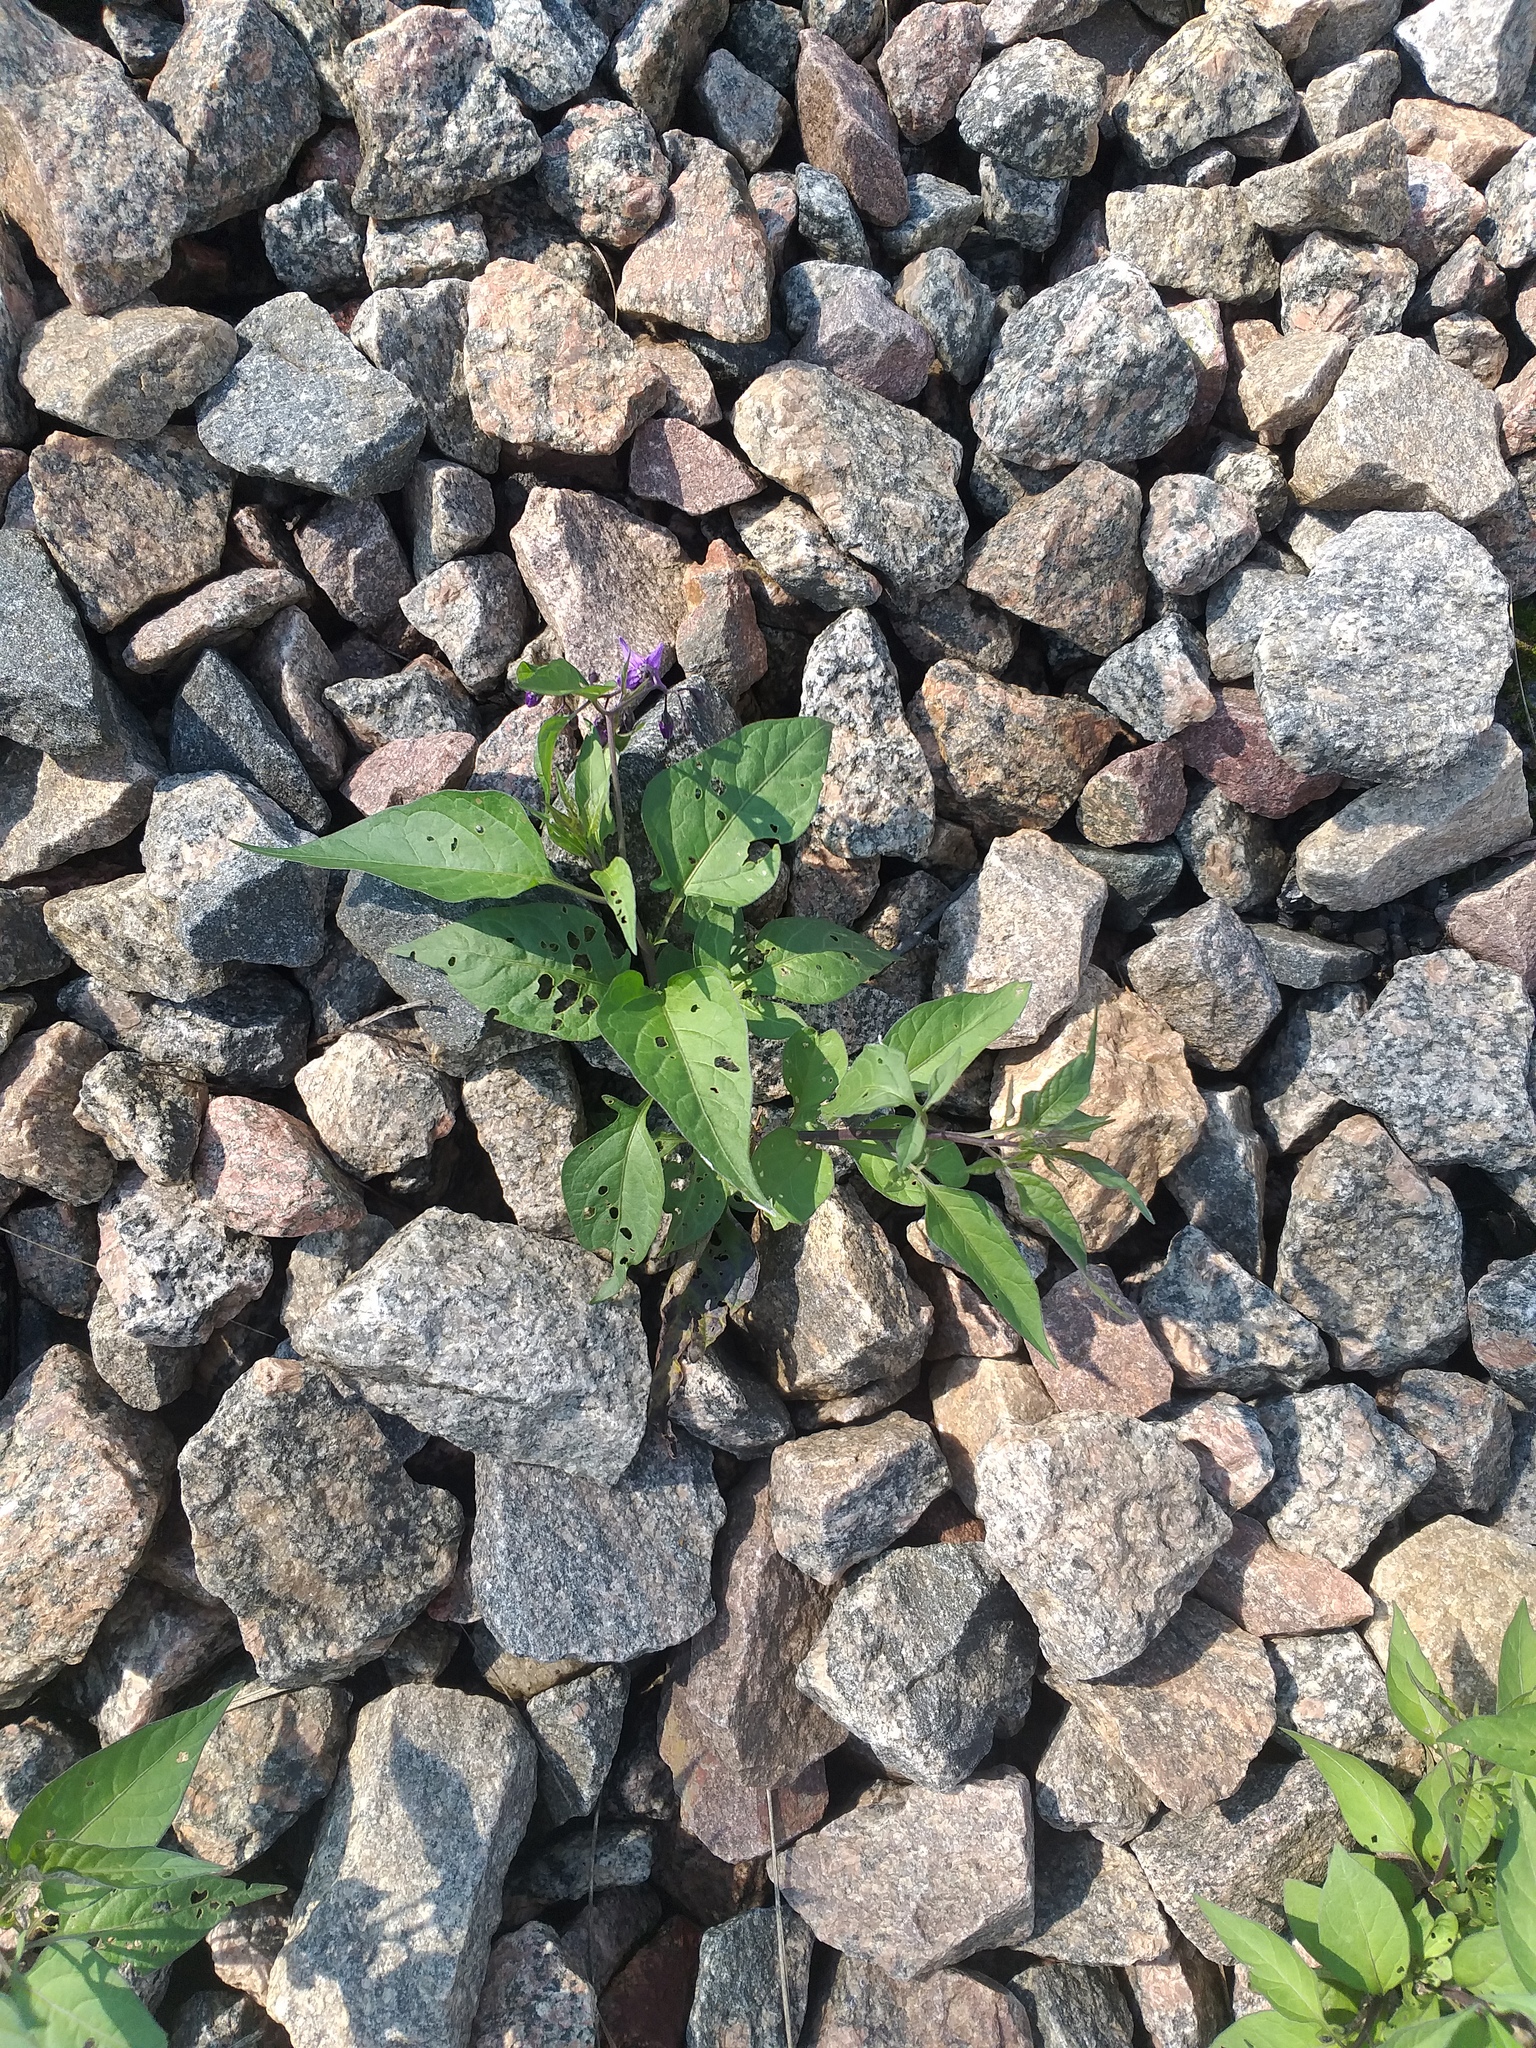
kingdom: Plantae
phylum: Tracheophyta
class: Magnoliopsida
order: Solanales
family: Solanaceae
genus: Solanum
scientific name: Solanum dulcamara
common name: Climbing nightshade
